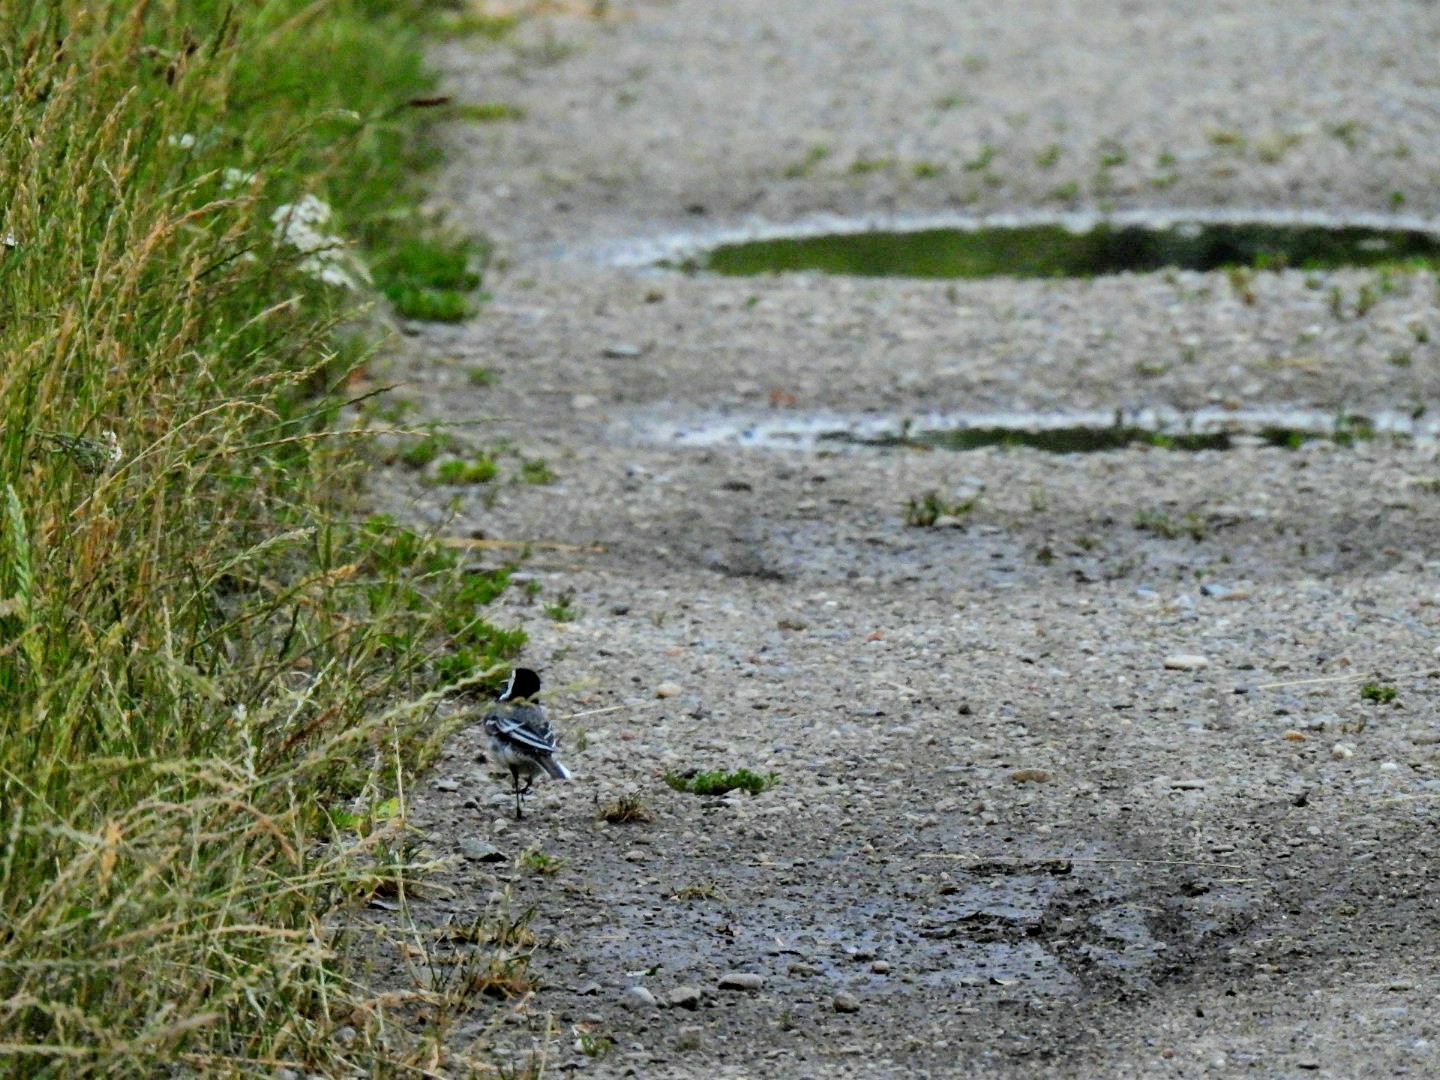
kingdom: Animalia
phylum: Chordata
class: Aves
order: Passeriformes
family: Motacillidae
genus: Motacilla
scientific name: Motacilla alba
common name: White wagtail
